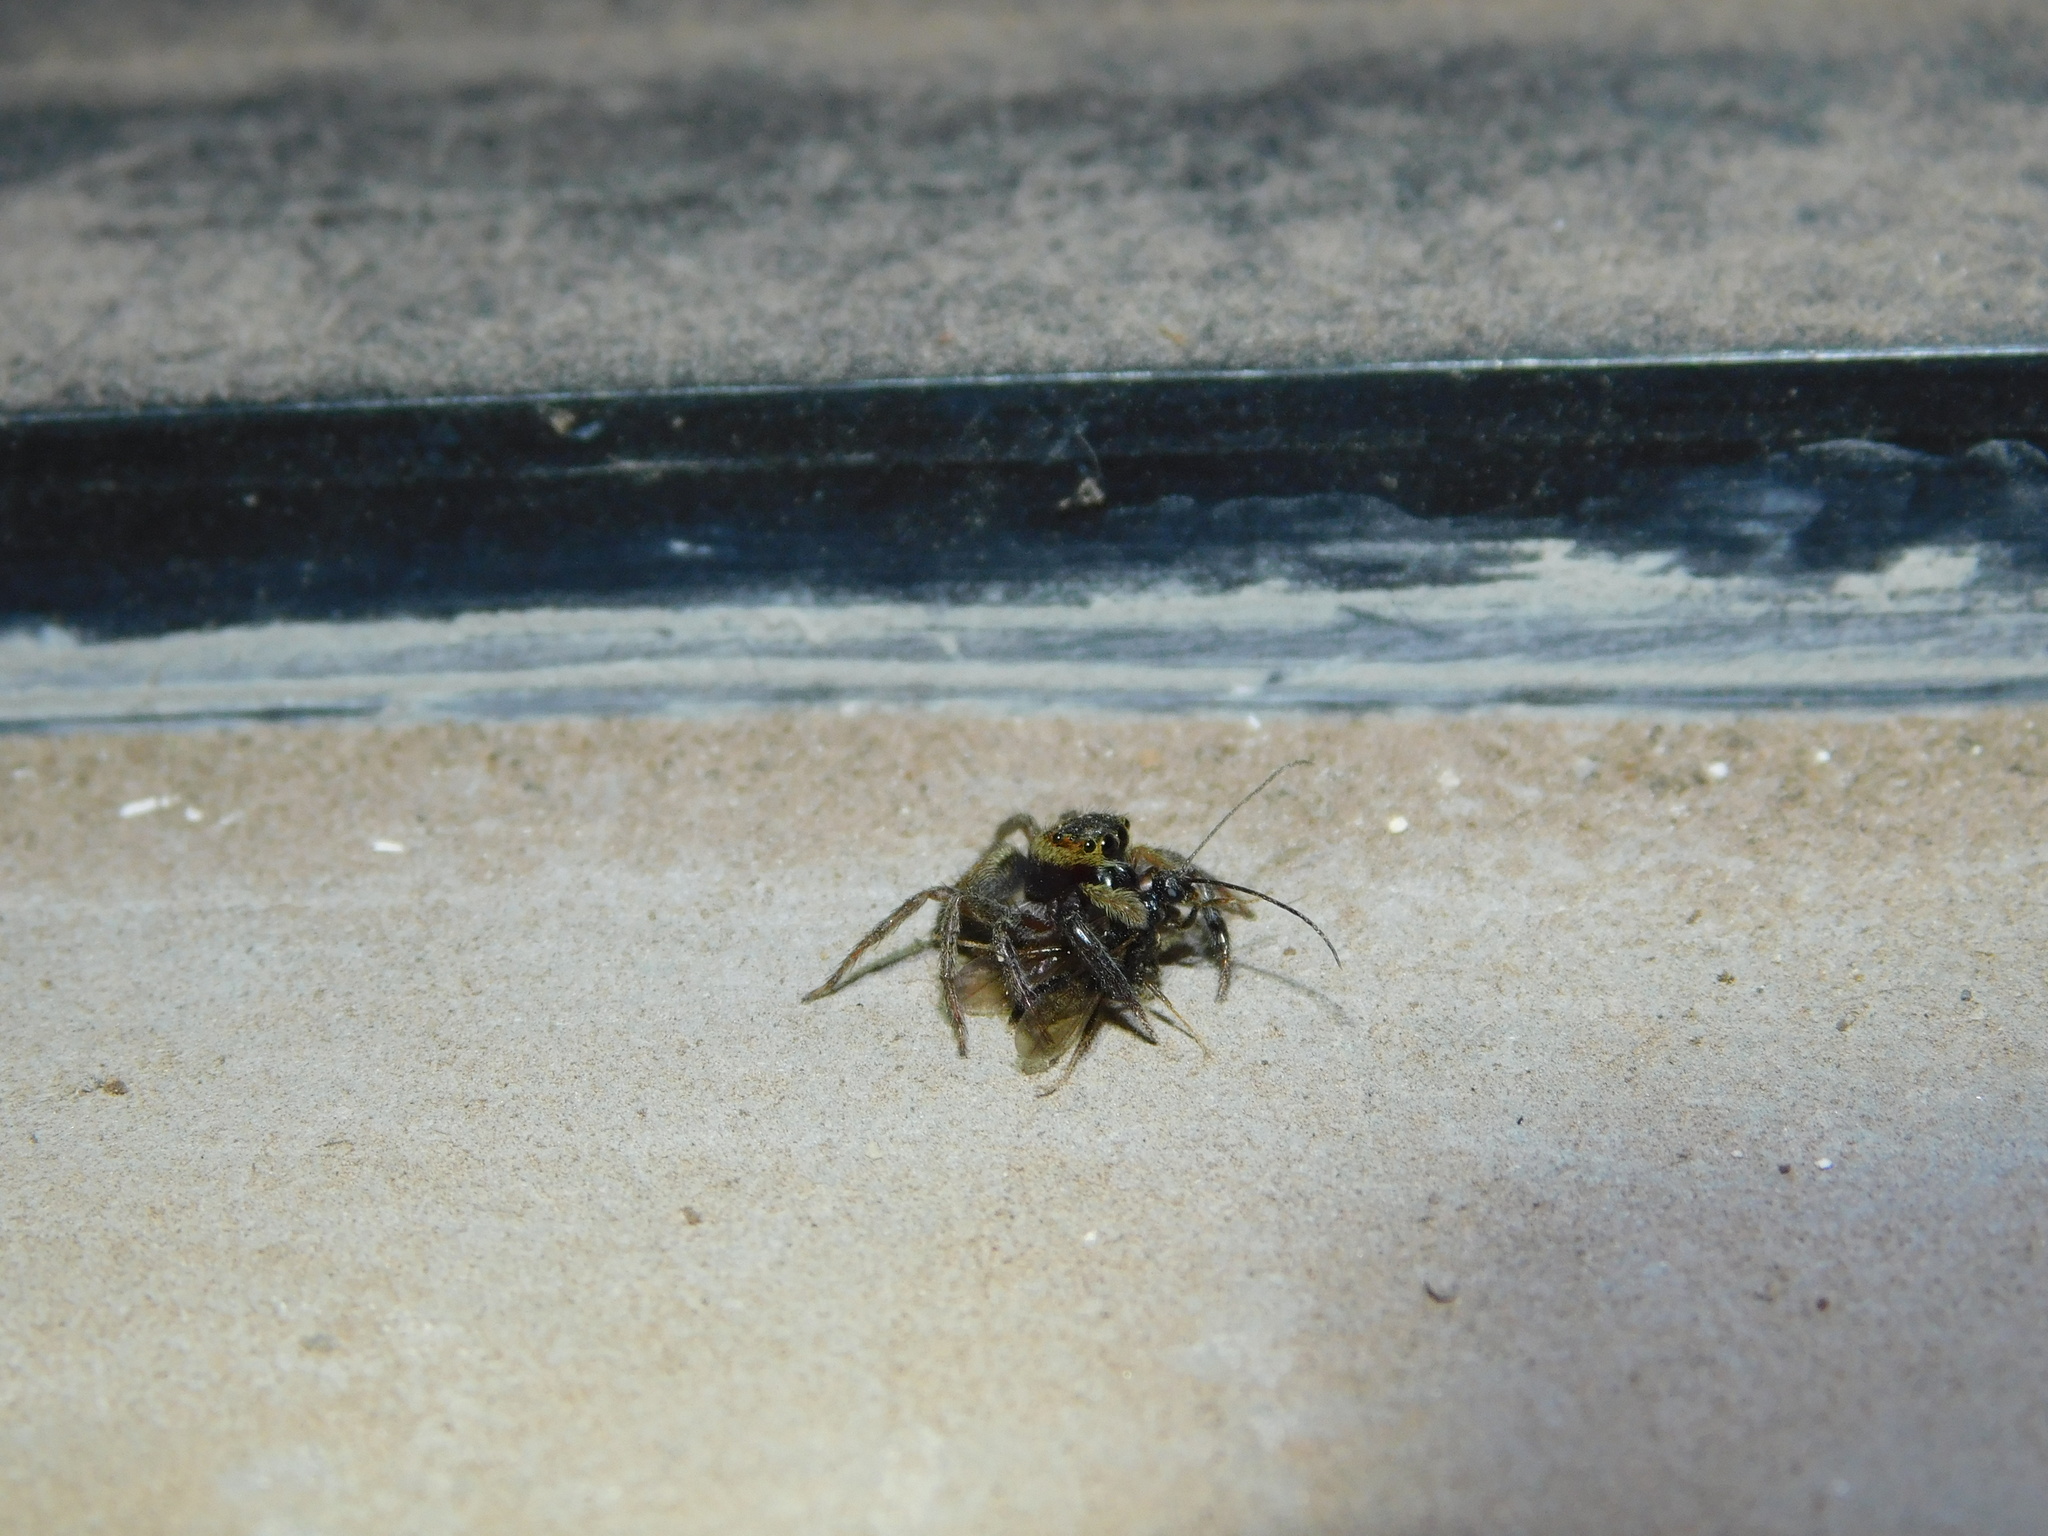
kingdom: Animalia
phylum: Arthropoda
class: Arachnida
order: Araneae
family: Salticidae
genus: Hasarius
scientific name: Hasarius adansoni
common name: Jumping spider
